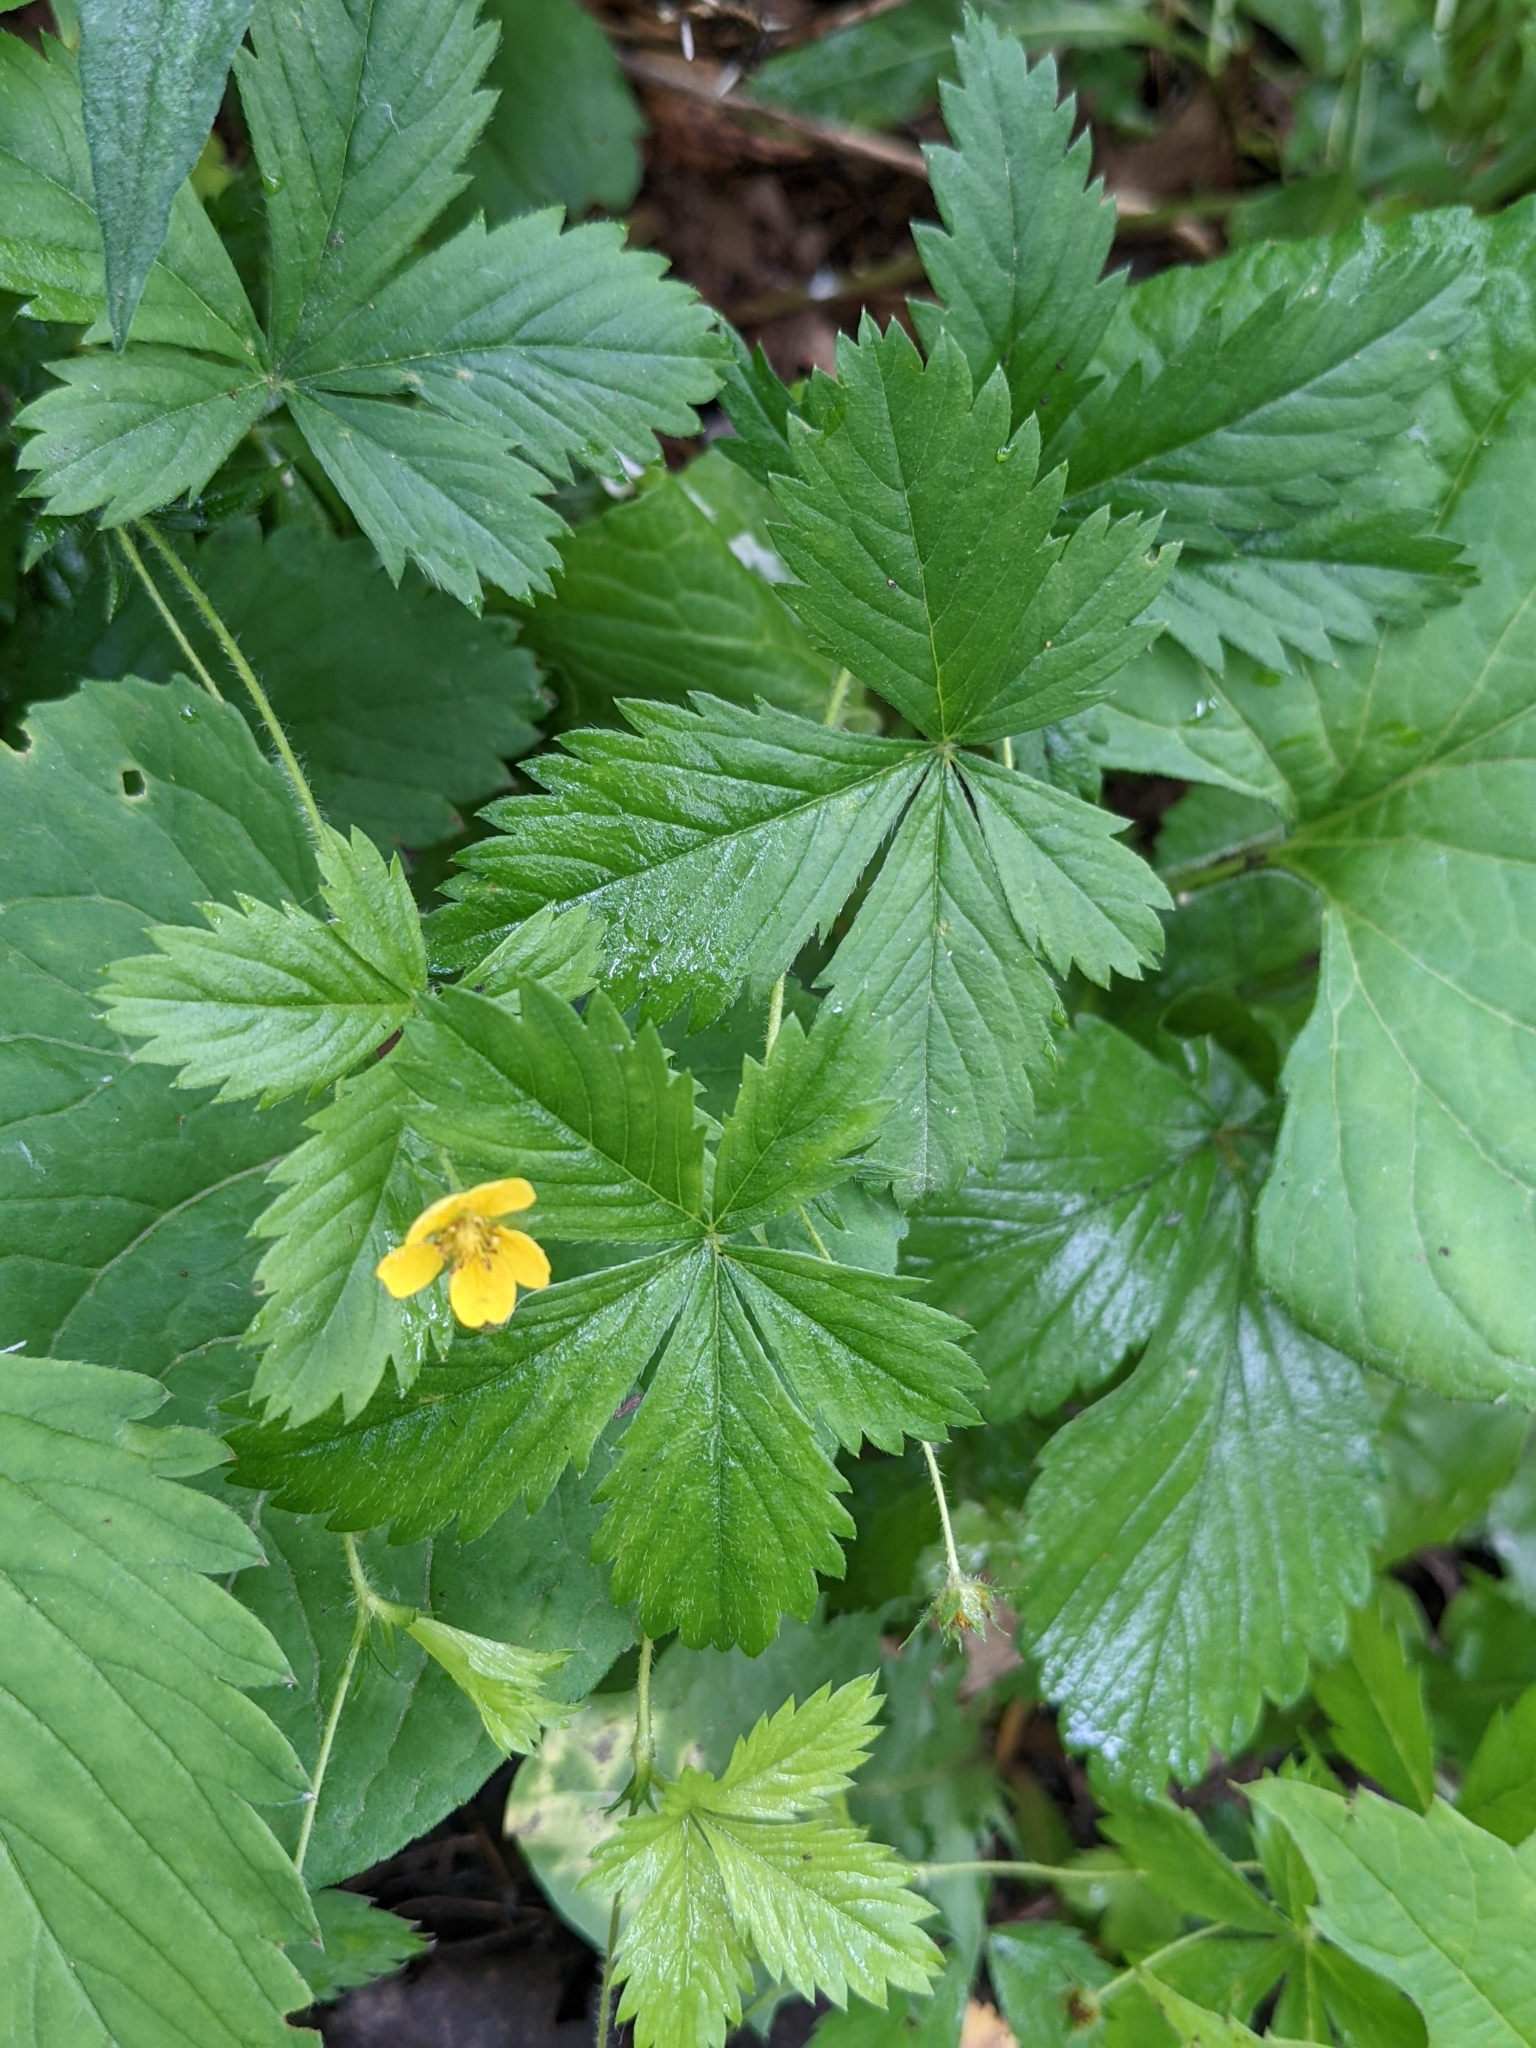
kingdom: Plantae
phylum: Tracheophyta
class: Magnoliopsida
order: Rosales
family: Rosaceae
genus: Potentilla
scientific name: Potentilla simplex
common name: Old field cinquefoil
